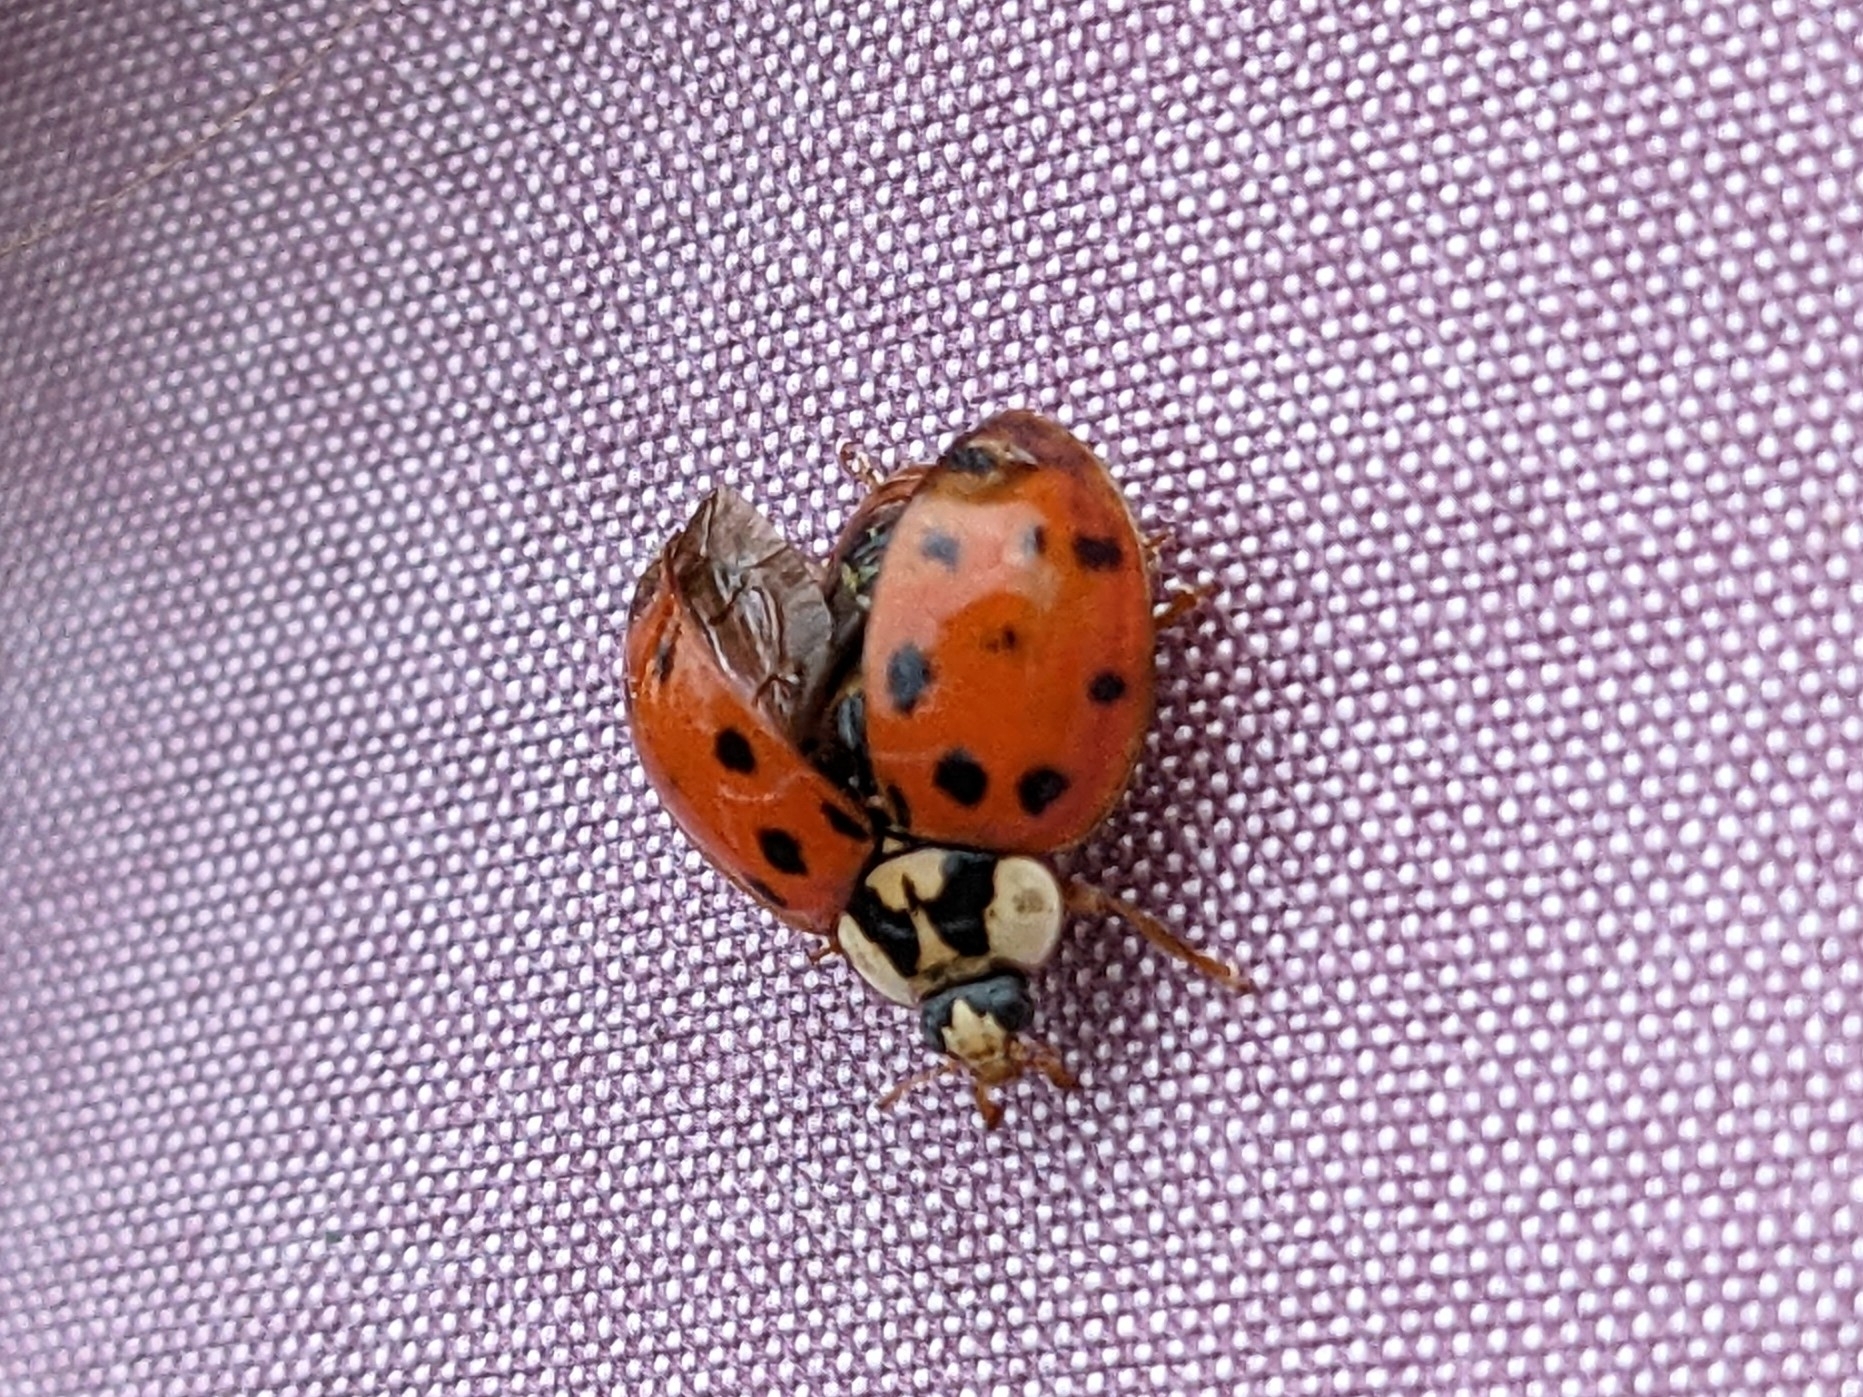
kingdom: Animalia
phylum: Arthropoda
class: Insecta
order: Coleoptera
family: Coccinellidae
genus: Harmonia
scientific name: Harmonia axyridis
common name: Harlequin ladybird
